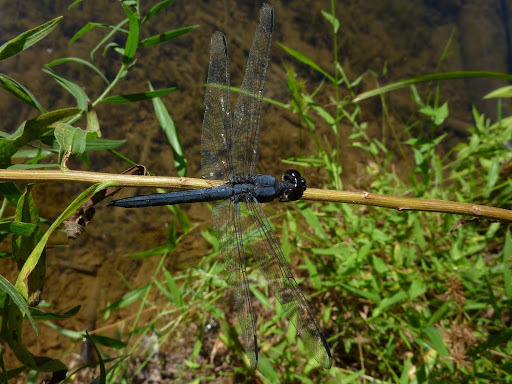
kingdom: Animalia
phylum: Arthropoda
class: Insecta
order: Odonata
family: Libellulidae
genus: Libellula
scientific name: Libellula incesta
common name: Slaty skimmer
